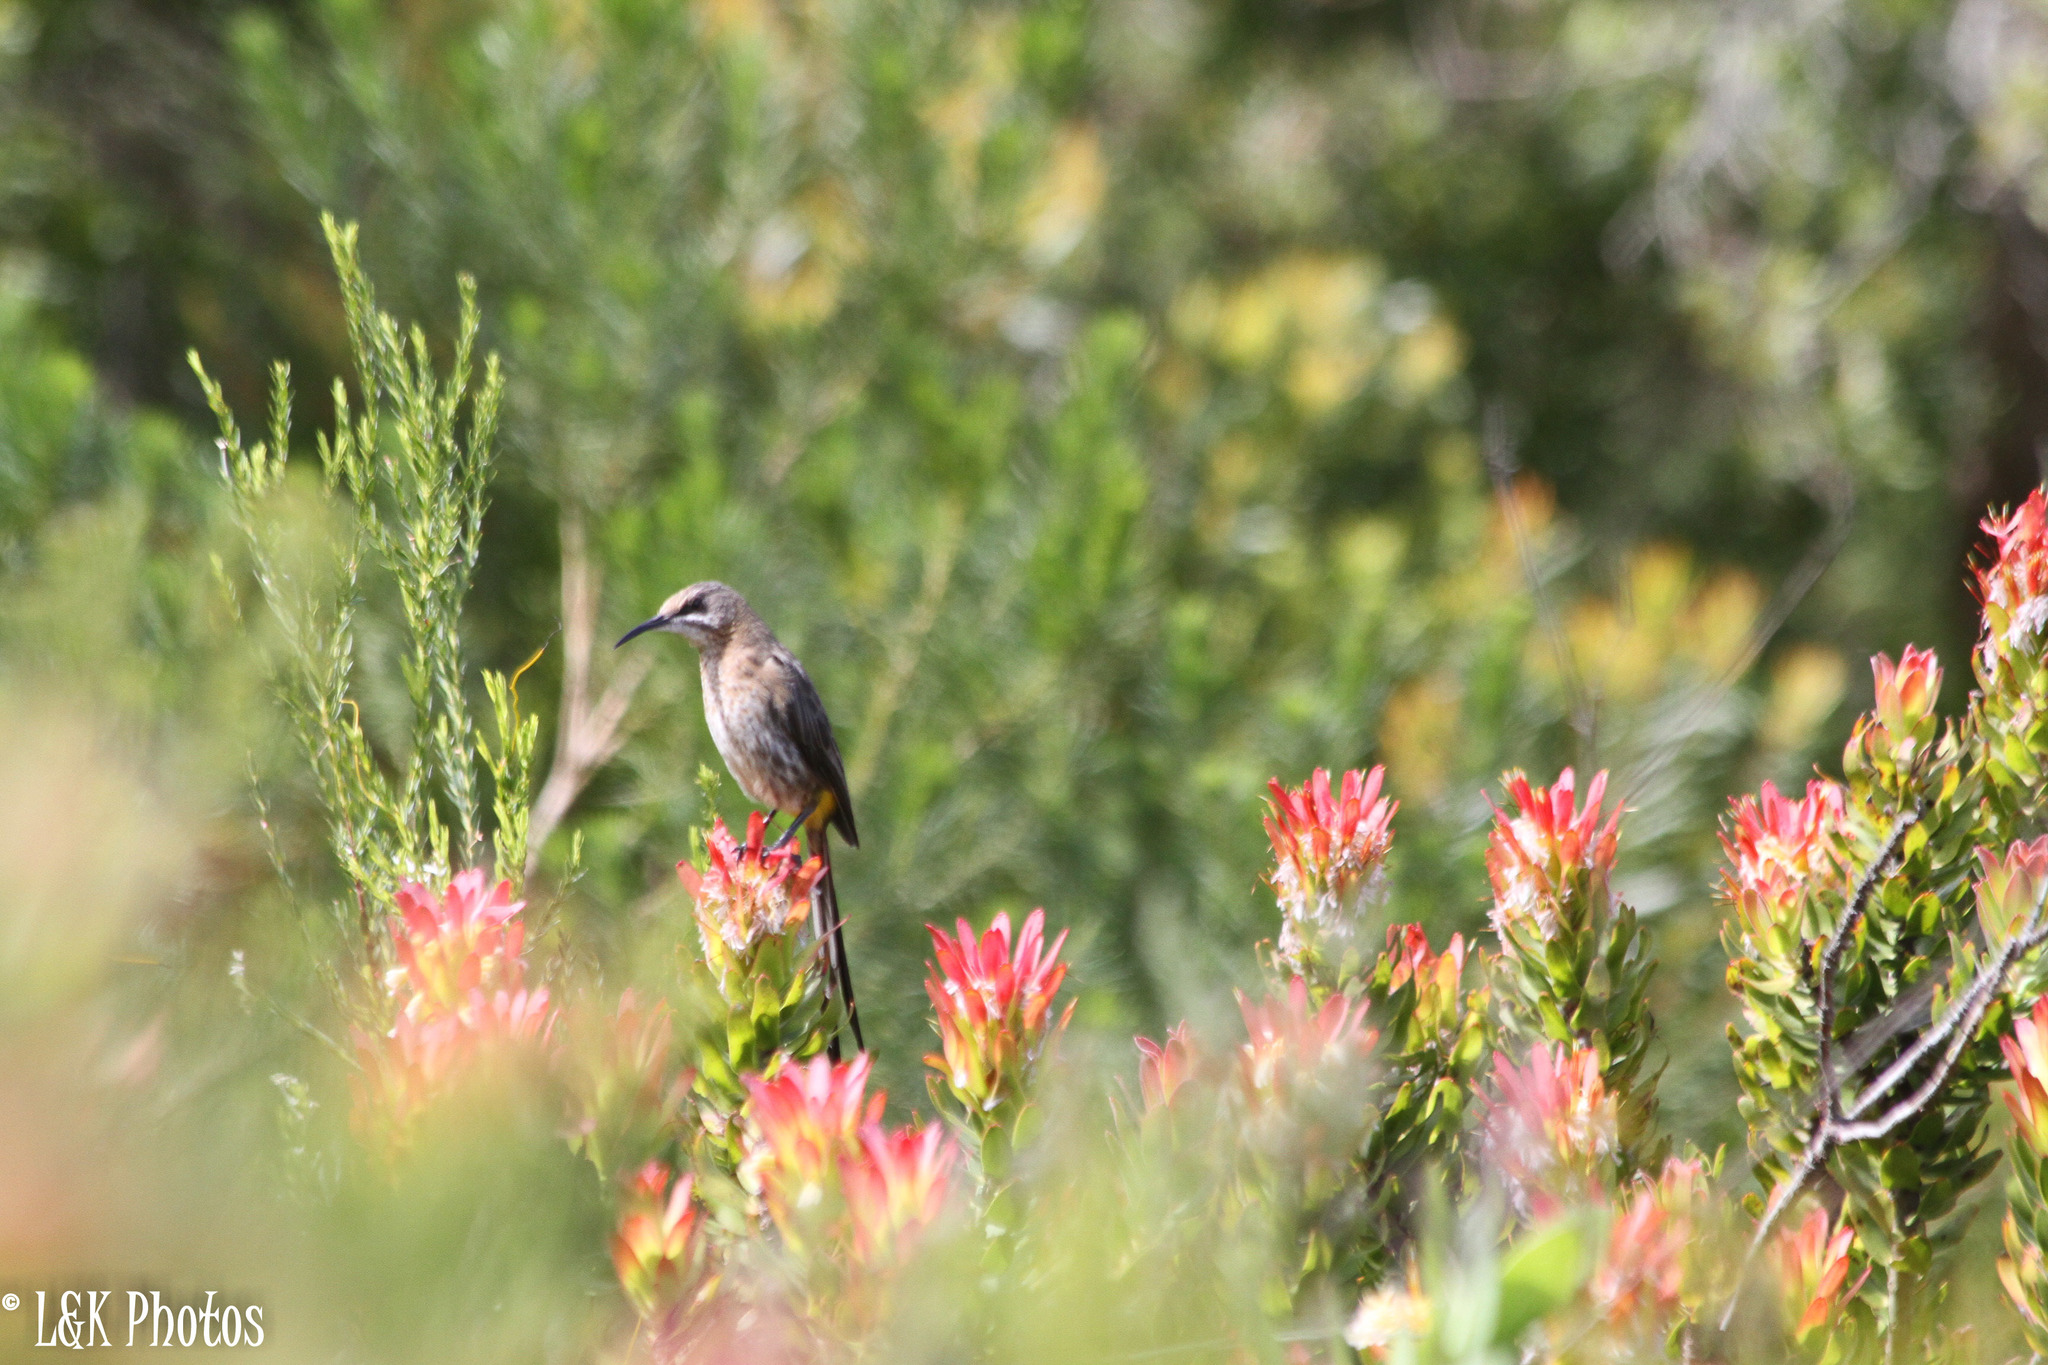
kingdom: Animalia
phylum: Chordata
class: Aves
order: Passeriformes
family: Promeropidae
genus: Promerops
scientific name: Promerops cafer
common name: Cape sugarbird
